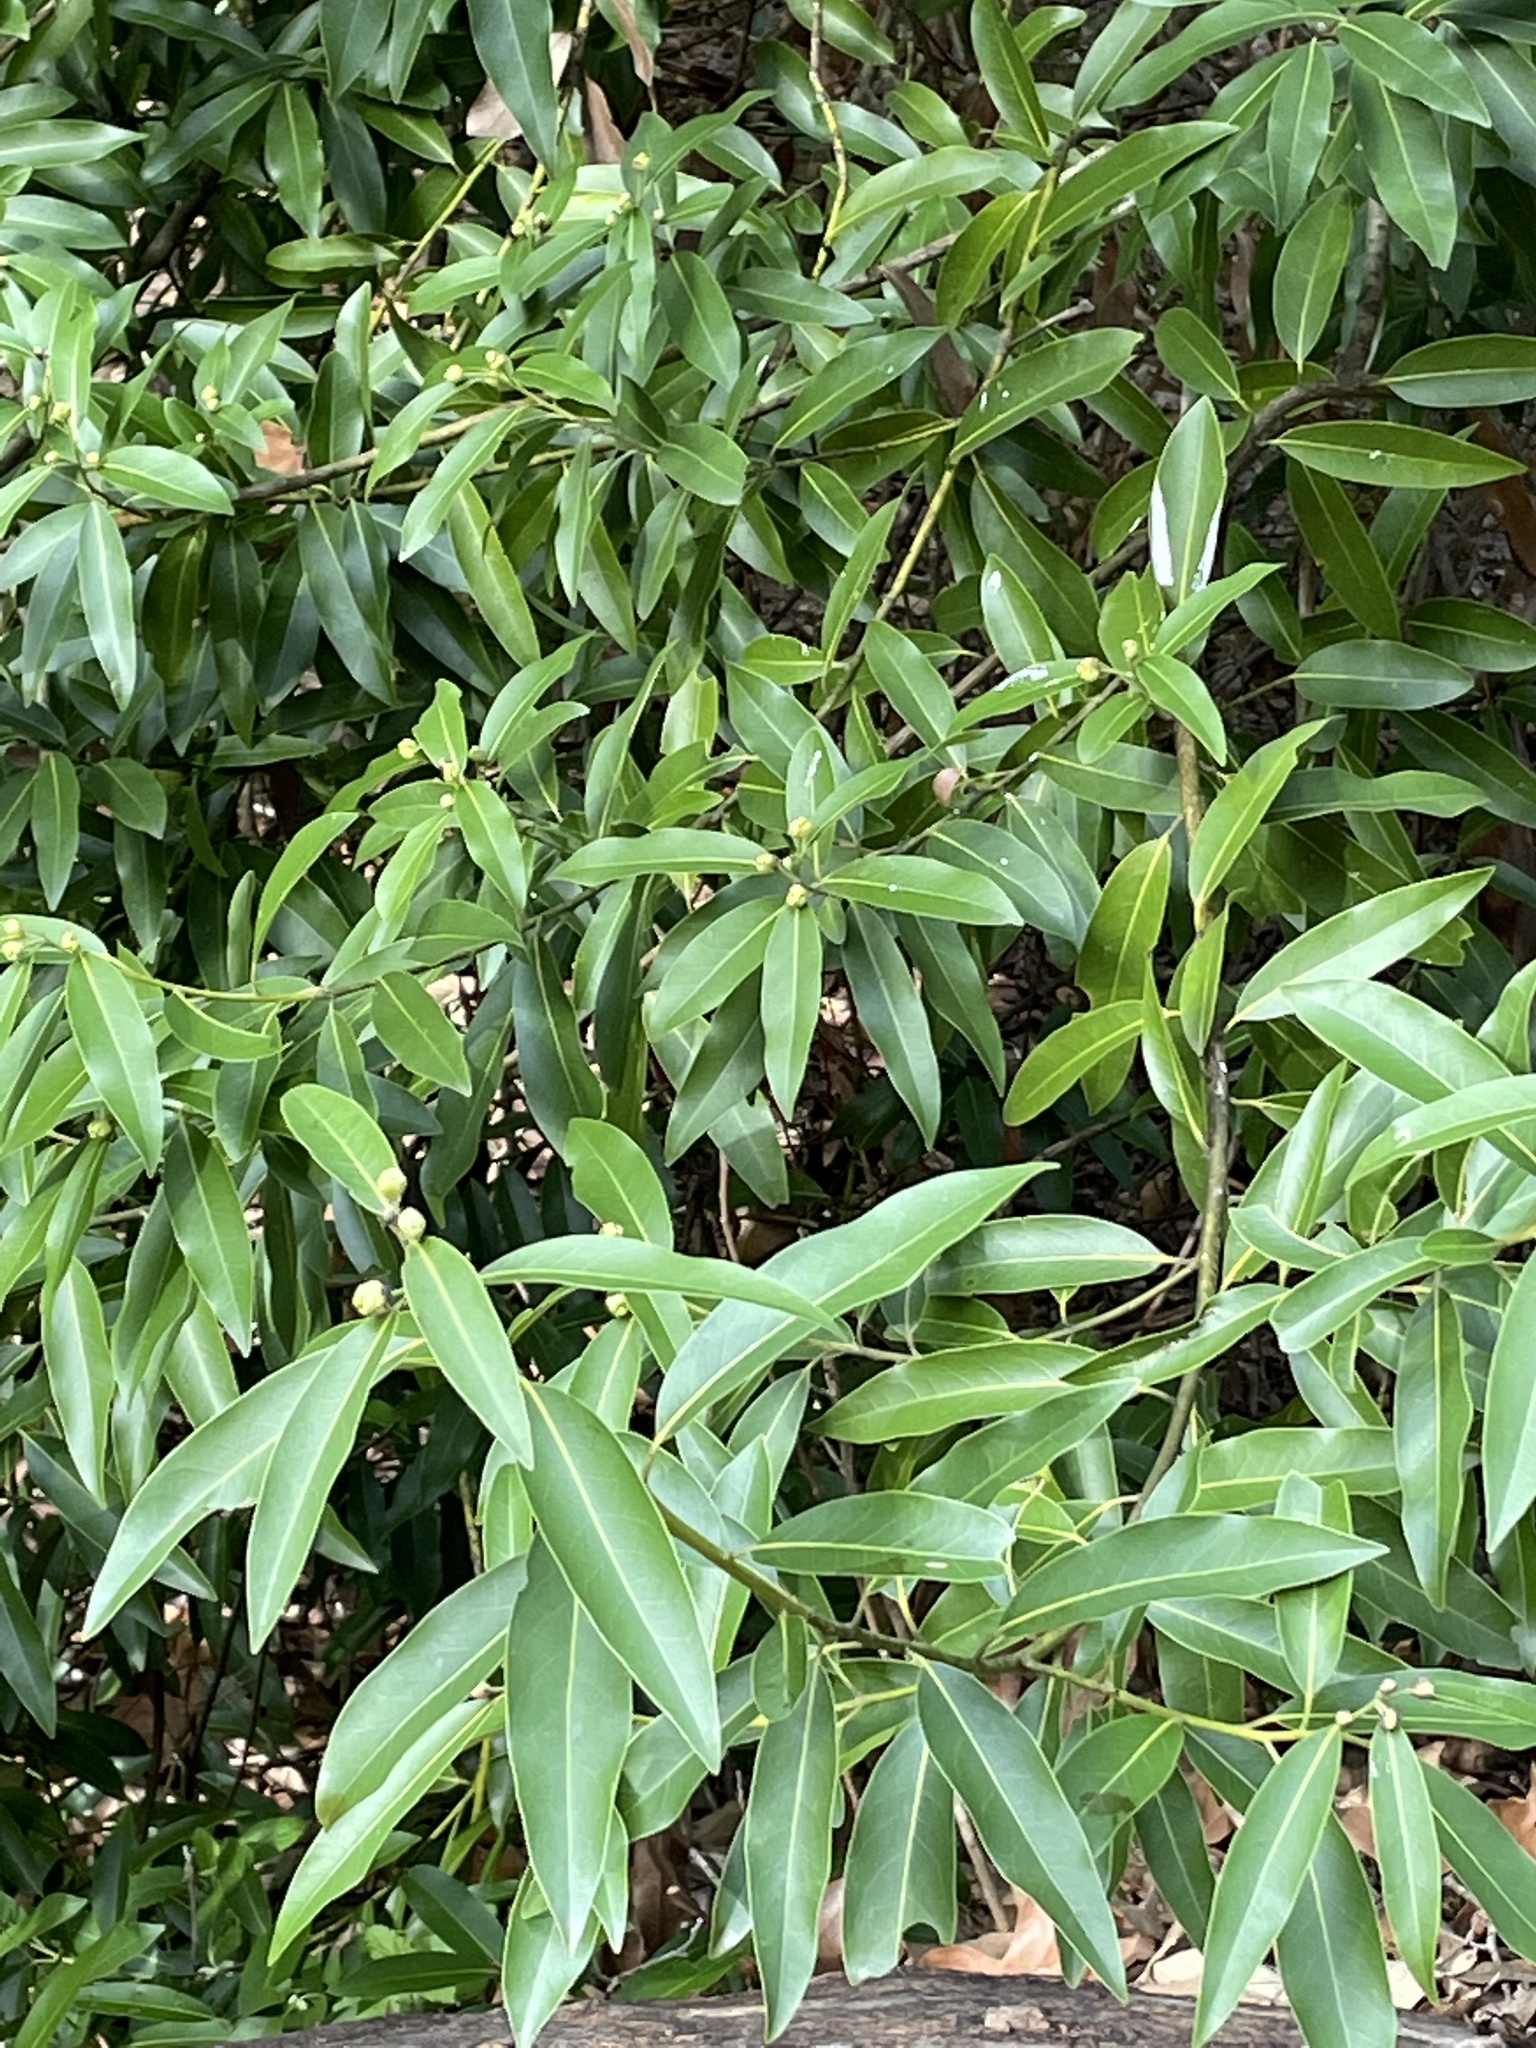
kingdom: Plantae
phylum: Tracheophyta
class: Magnoliopsida
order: Laurales
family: Lauraceae
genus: Umbellularia
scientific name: Umbellularia californica
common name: California bay
